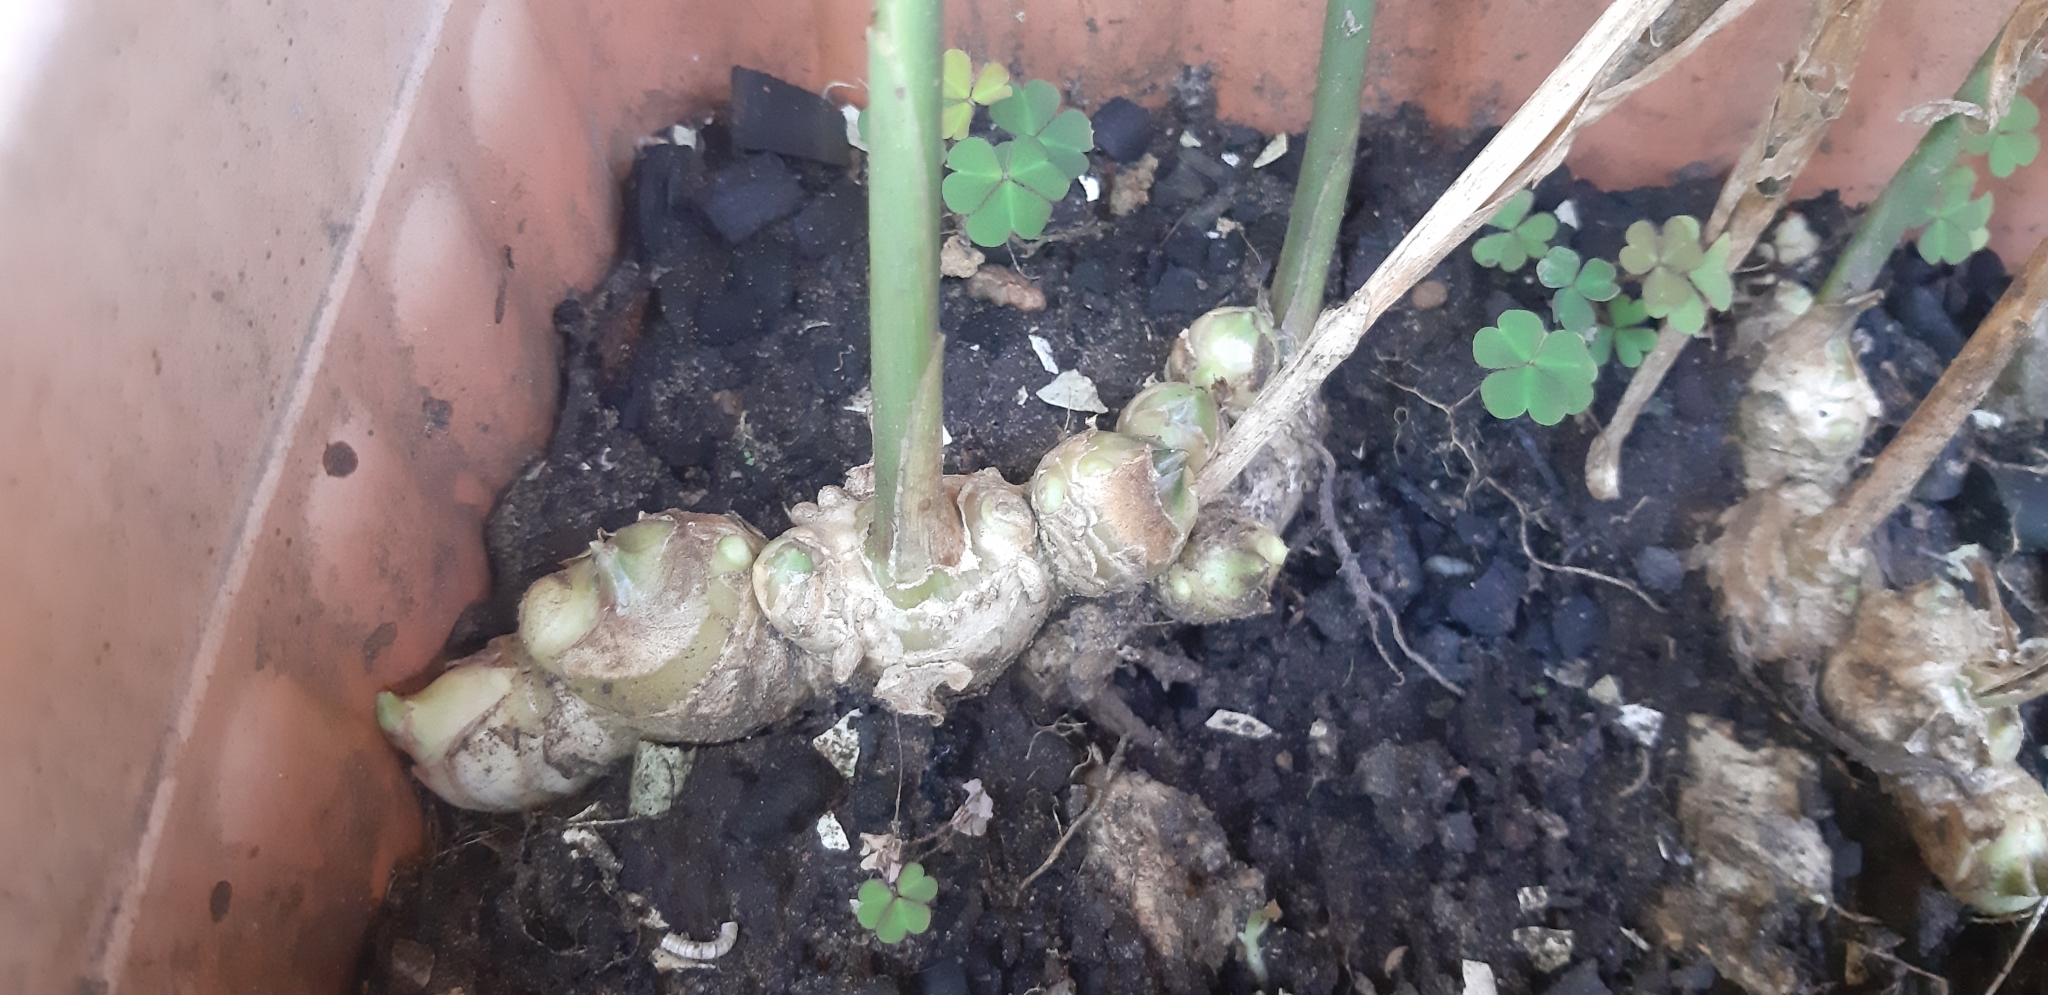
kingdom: Plantae
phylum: Tracheophyta
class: Liliopsida
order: Zingiberales
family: Zingiberaceae
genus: Zingiber
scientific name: Zingiber officinale
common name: Ginger
